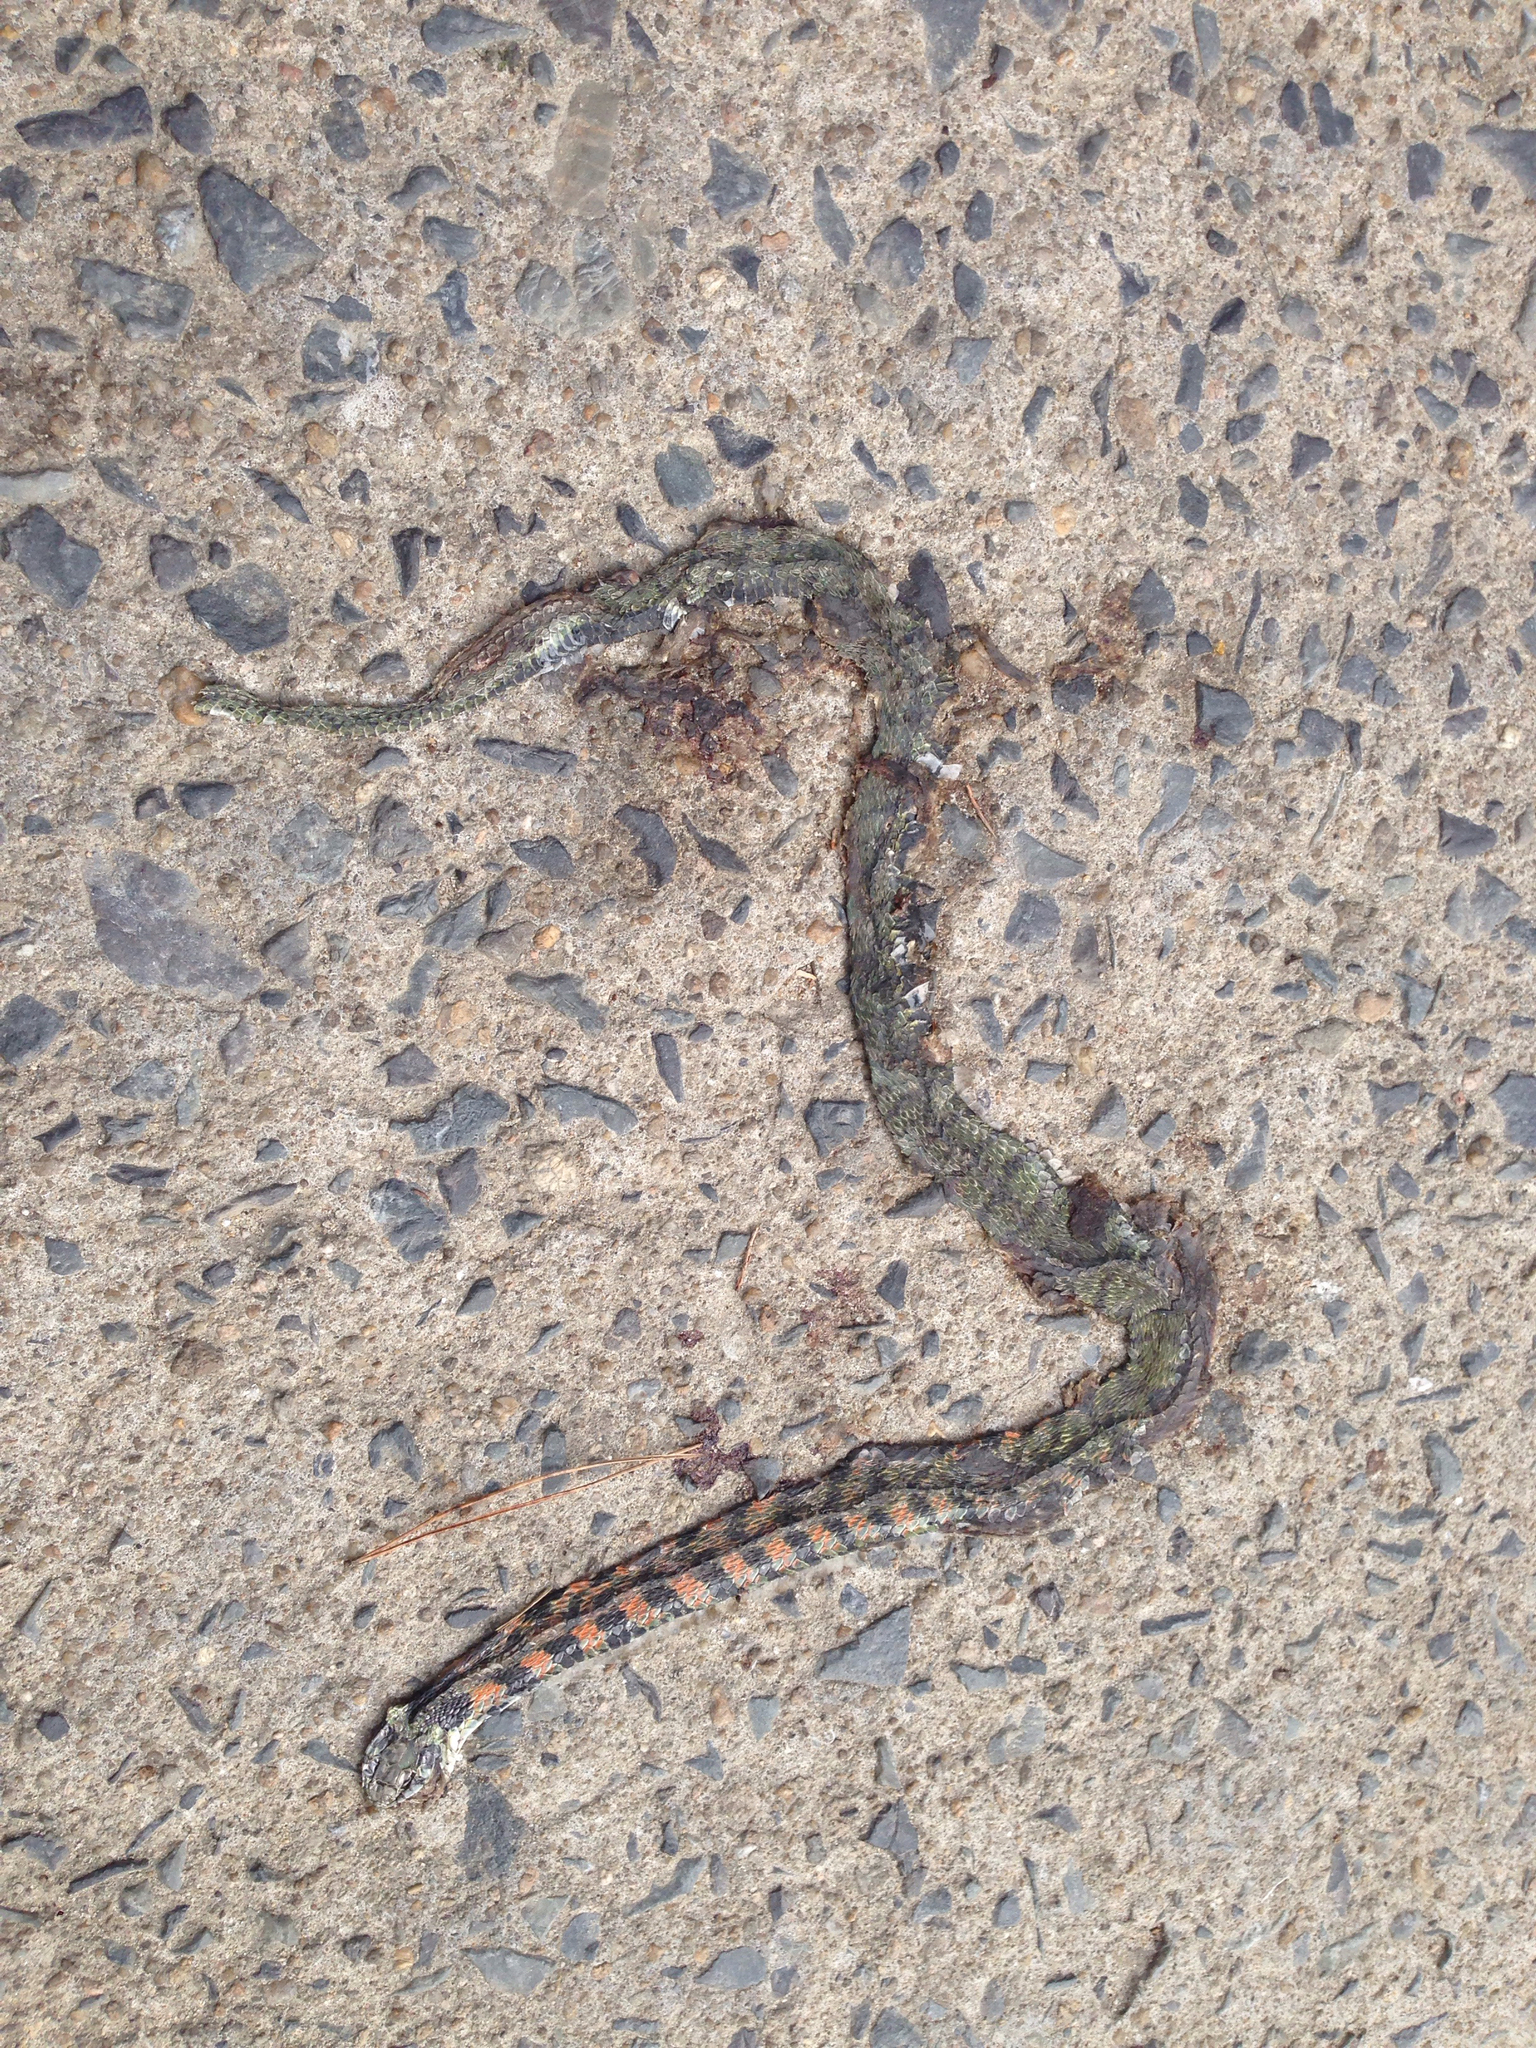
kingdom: Animalia
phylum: Chordata
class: Squamata
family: Colubridae
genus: Rhabdophis
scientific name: Rhabdophis tigrinus
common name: Tiger keelback
